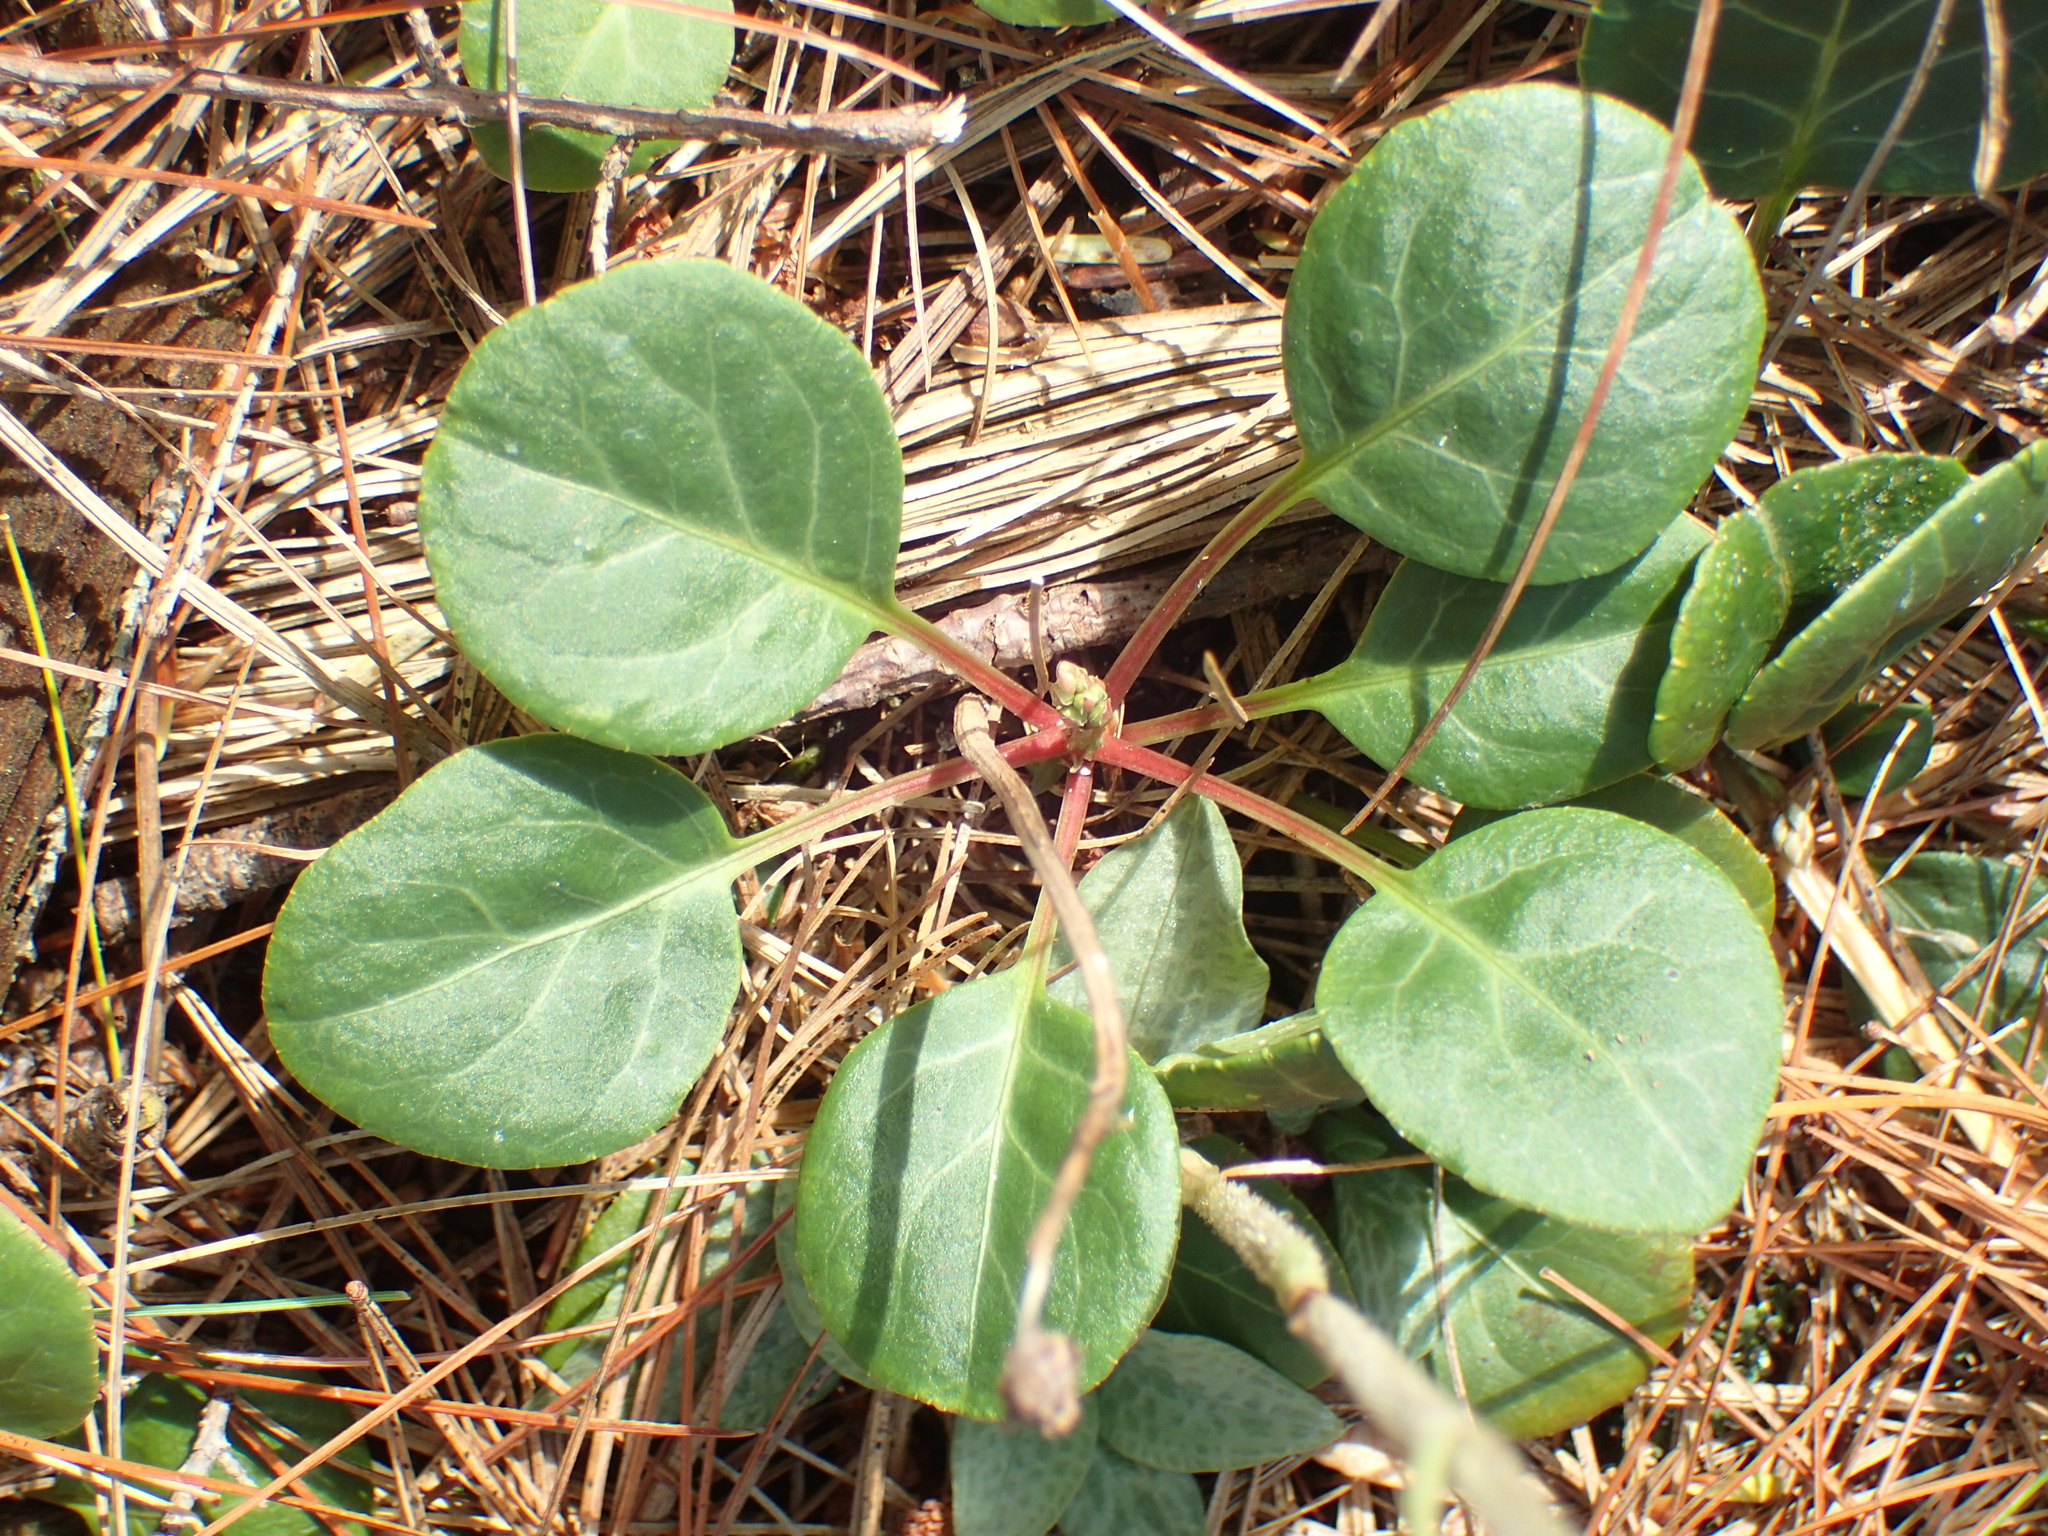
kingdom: Plantae
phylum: Tracheophyta
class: Magnoliopsida
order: Ericales
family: Ericaceae
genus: Pyrola
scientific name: Pyrola chlorantha
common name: Green wintergreen
